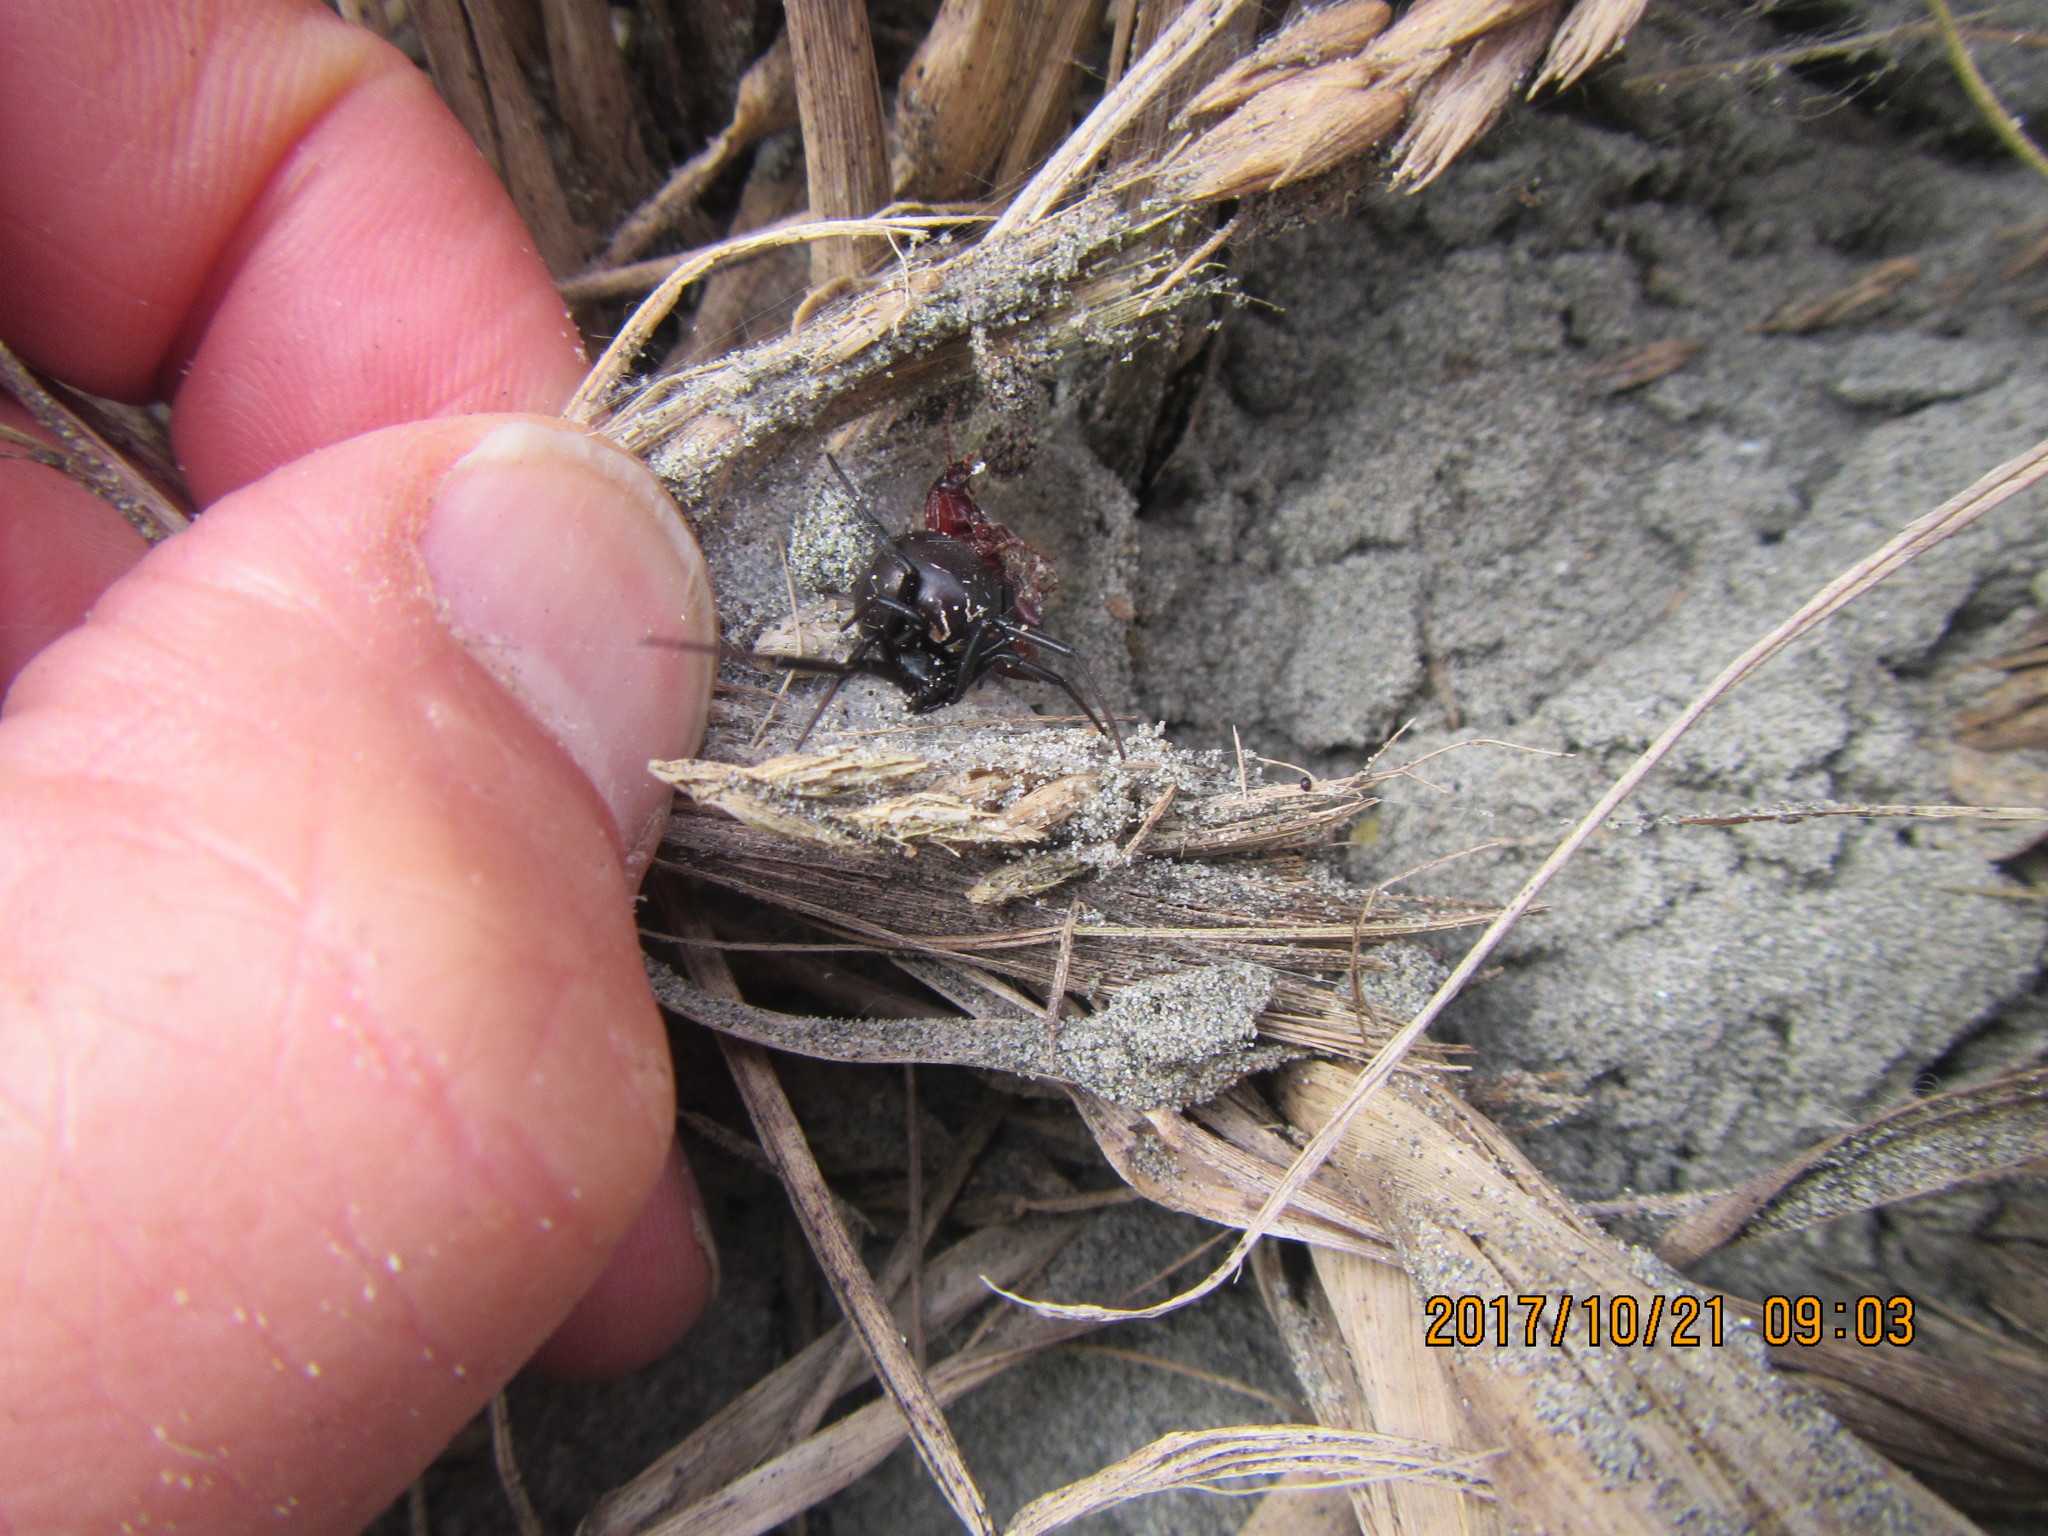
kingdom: Animalia
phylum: Arthropoda
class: Arachnida
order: Araneae
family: Theridiidae
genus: Latrodectus
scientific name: Latrodectus katipo
